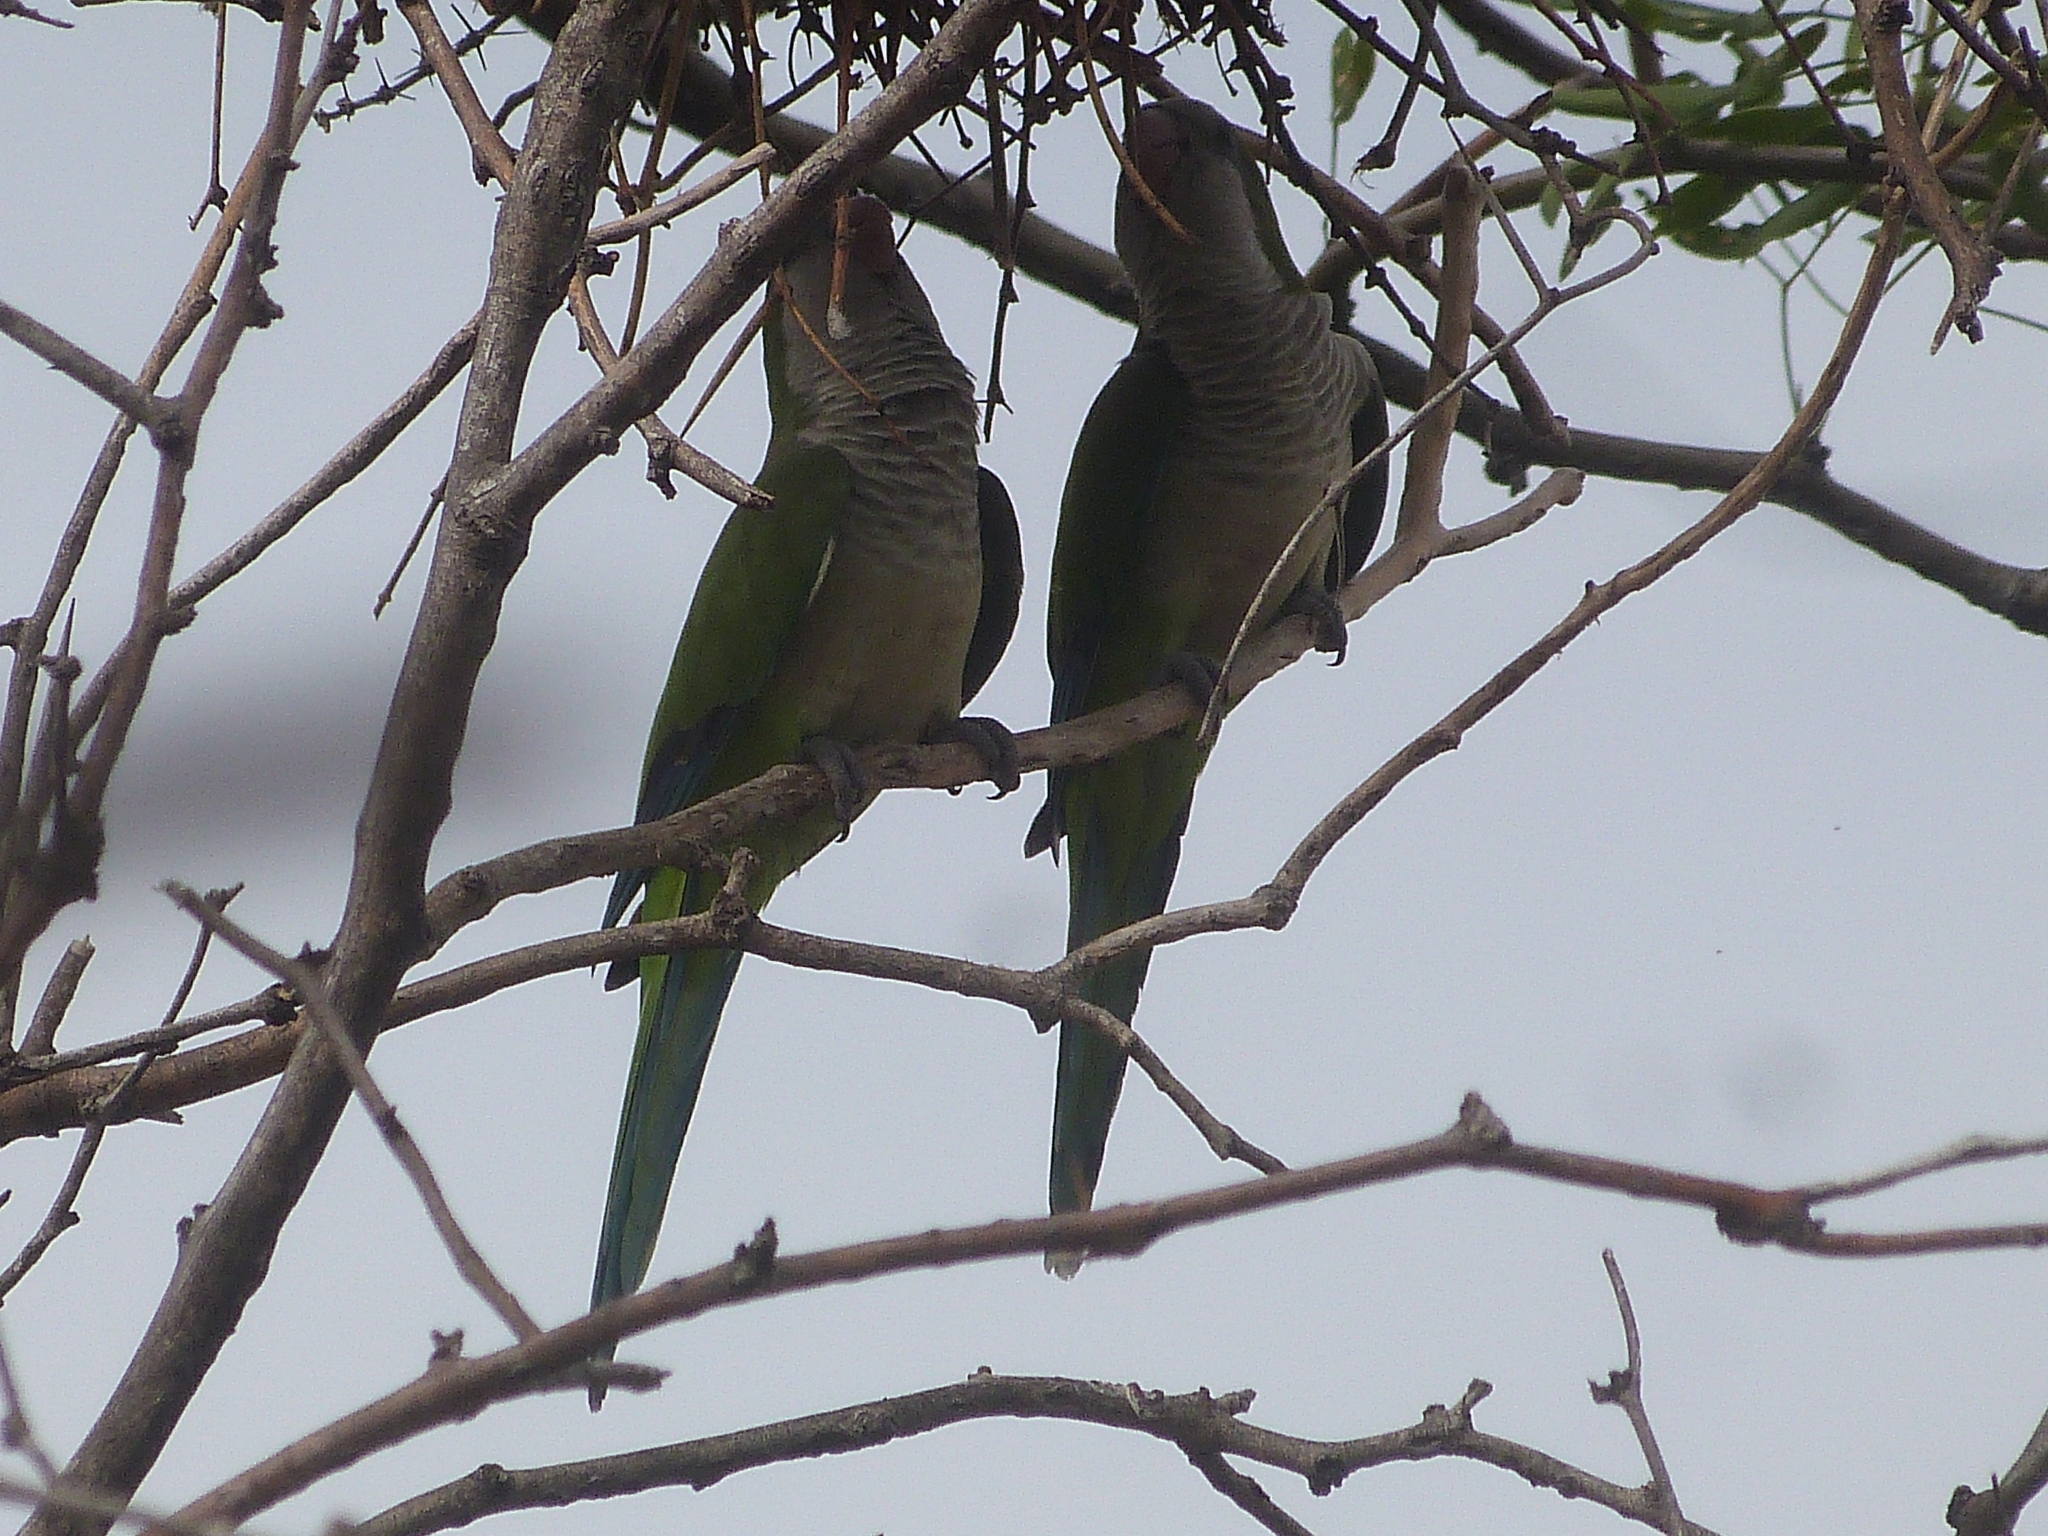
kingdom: Animalia
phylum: Chordata
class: Aves
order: Psittaciformes
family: Psittacidae
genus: Myiopsitta
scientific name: Myiopsitta monachus
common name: Monk parakeet
